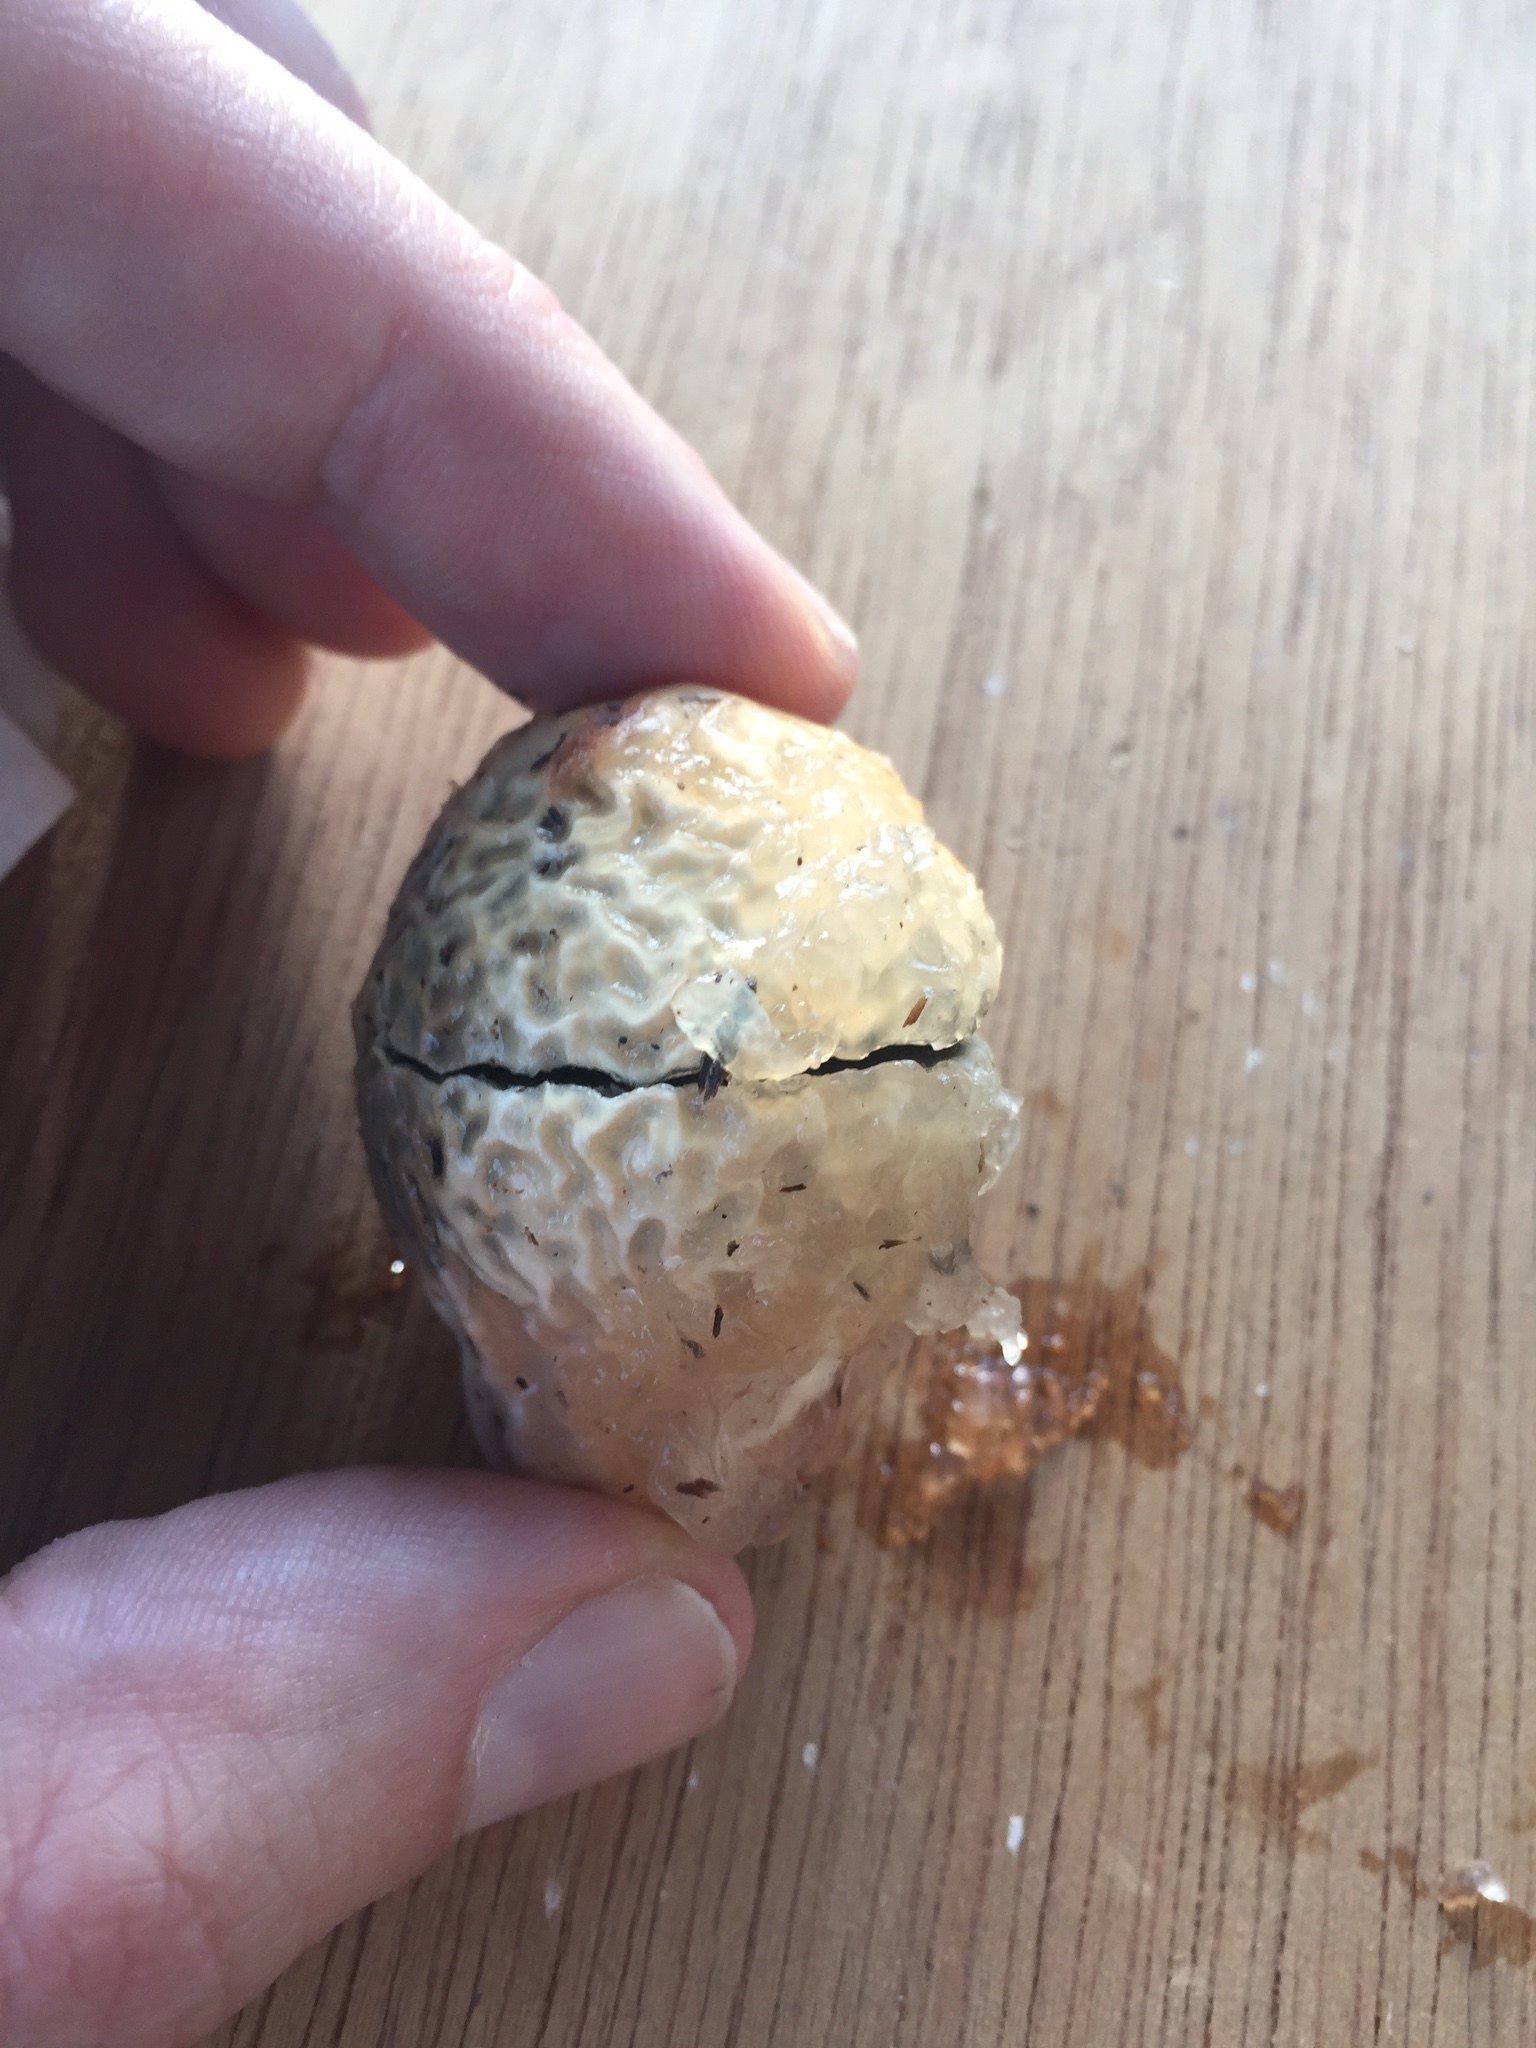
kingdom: Fungi
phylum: Basidiomycota
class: Agaricomycetes
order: Phallales
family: Phallaceae
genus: Phallus
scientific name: Phallus ravenelii
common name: Ravenel's stinkhorn
